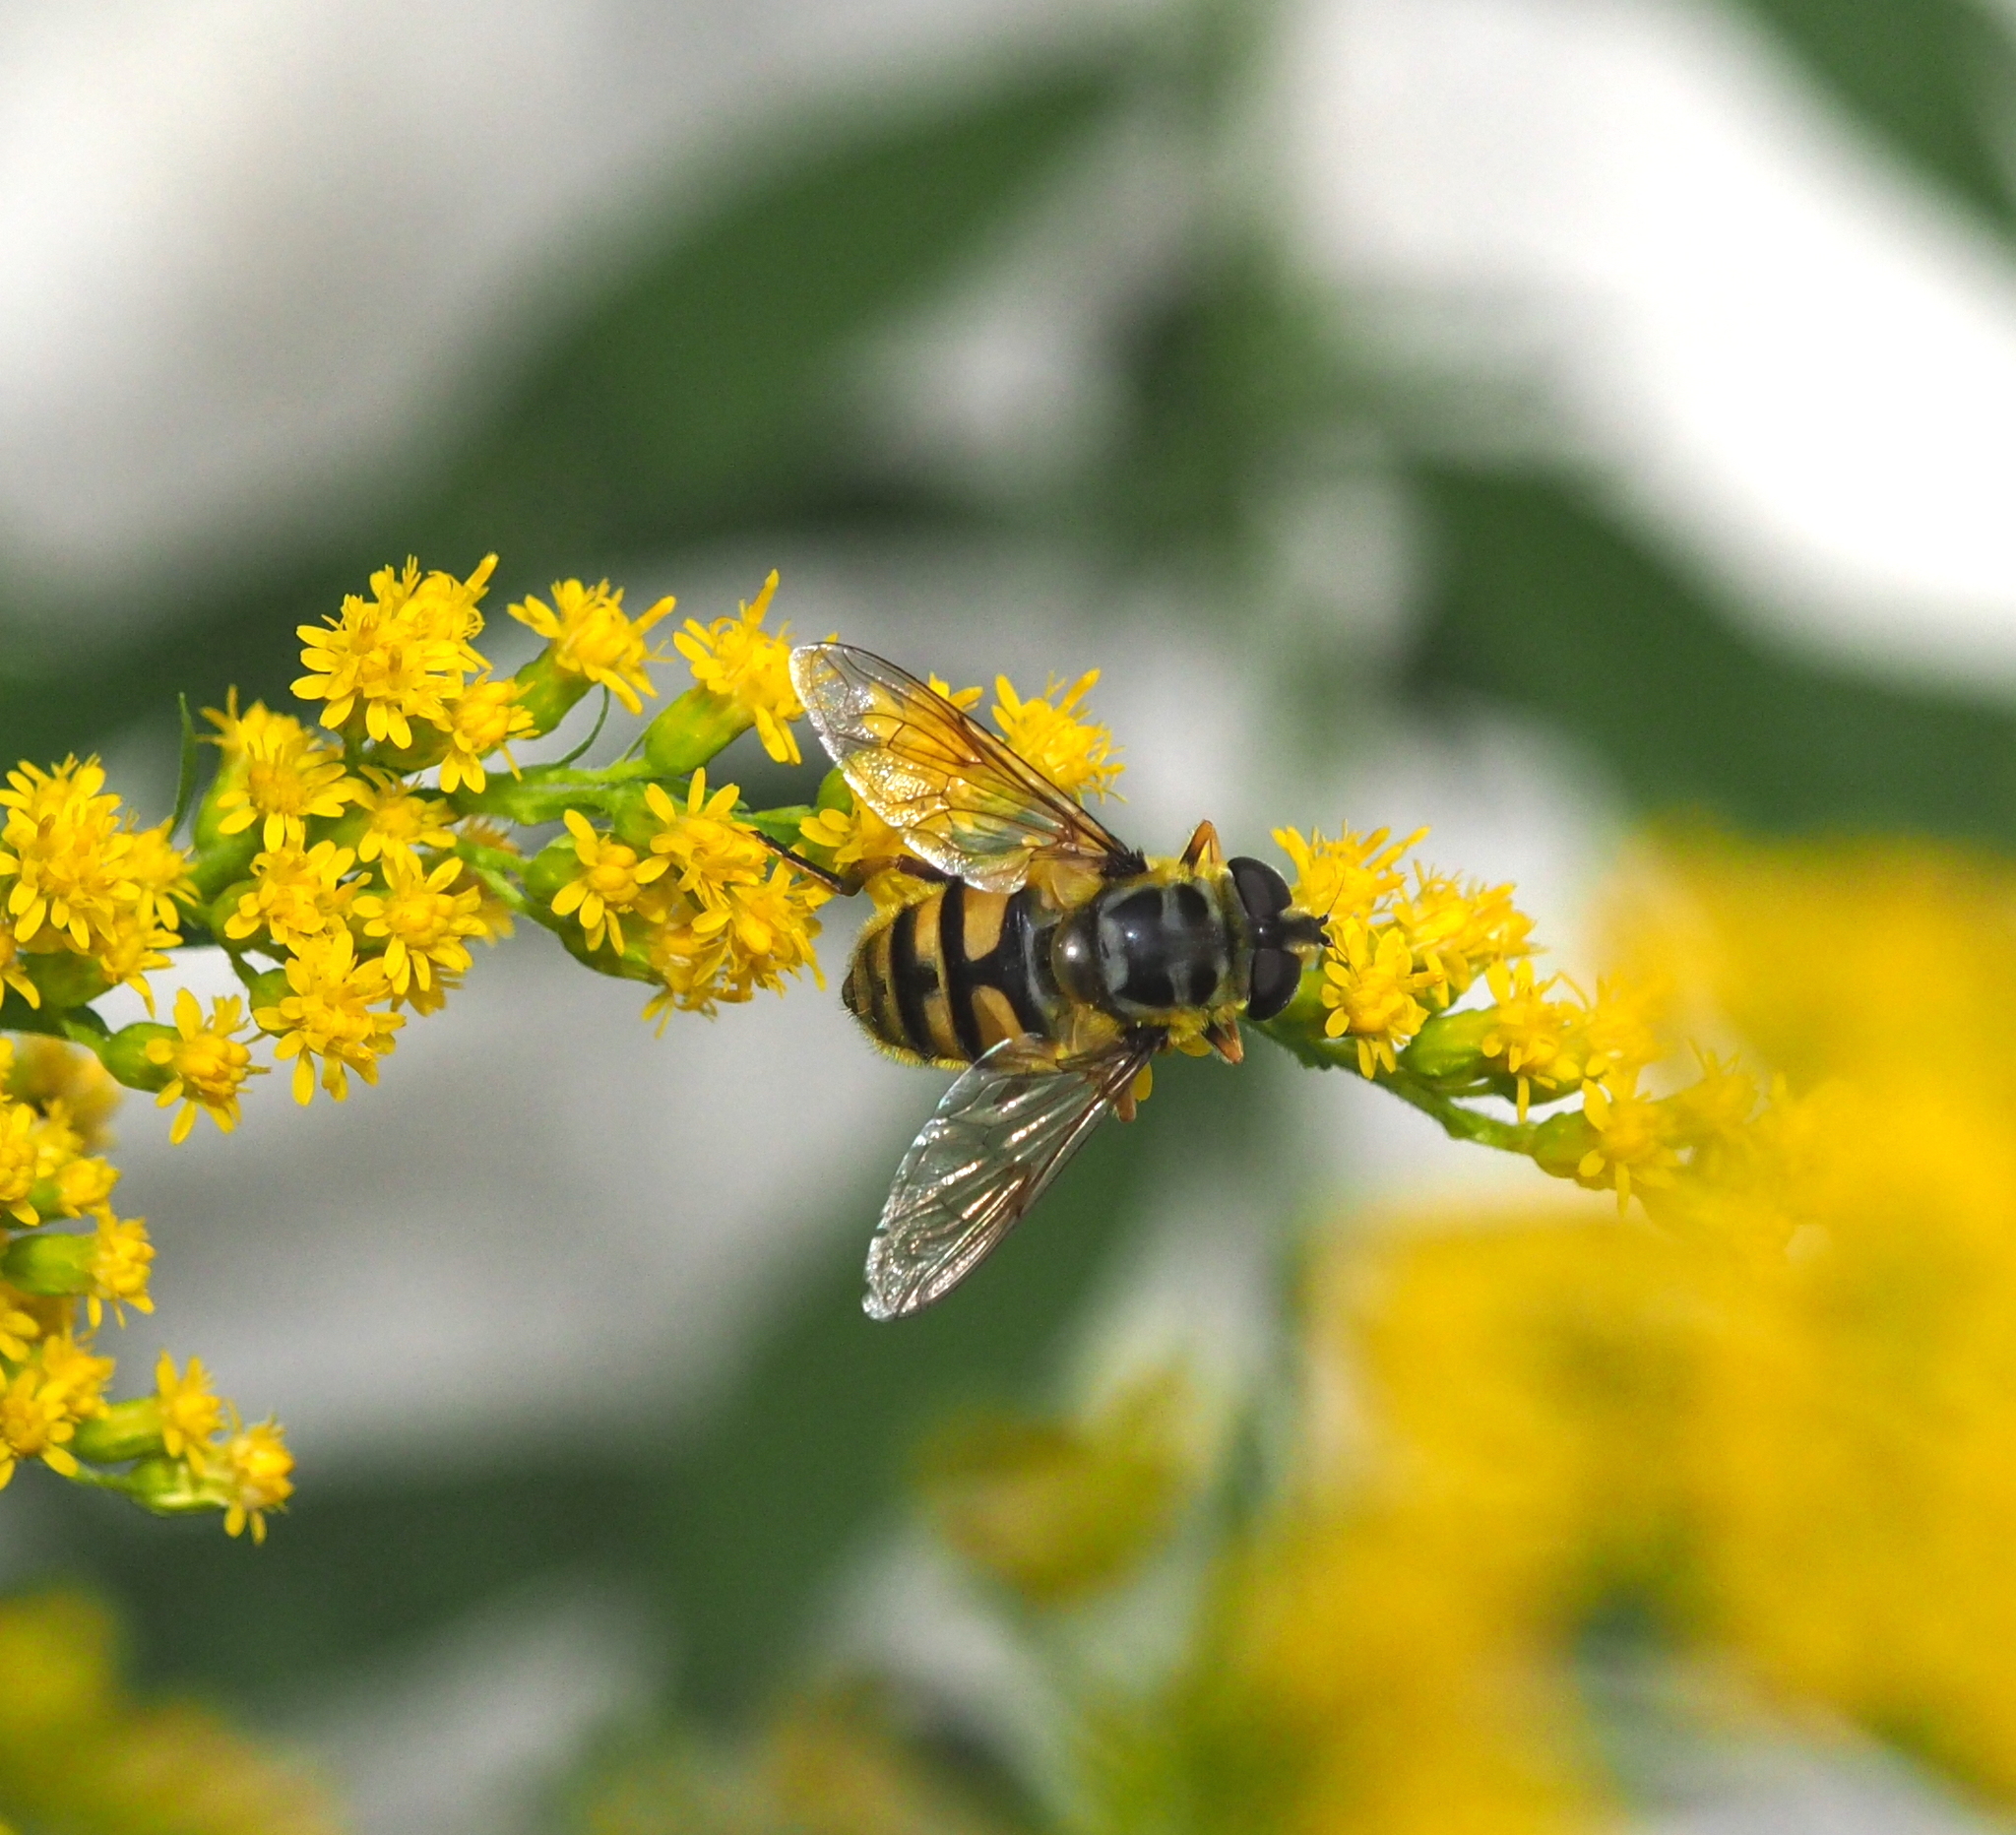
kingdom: Animalia
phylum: Arthropoda
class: Insecta
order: Diptera
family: Syrphidae
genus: Myathropa
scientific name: Myathropa florea
